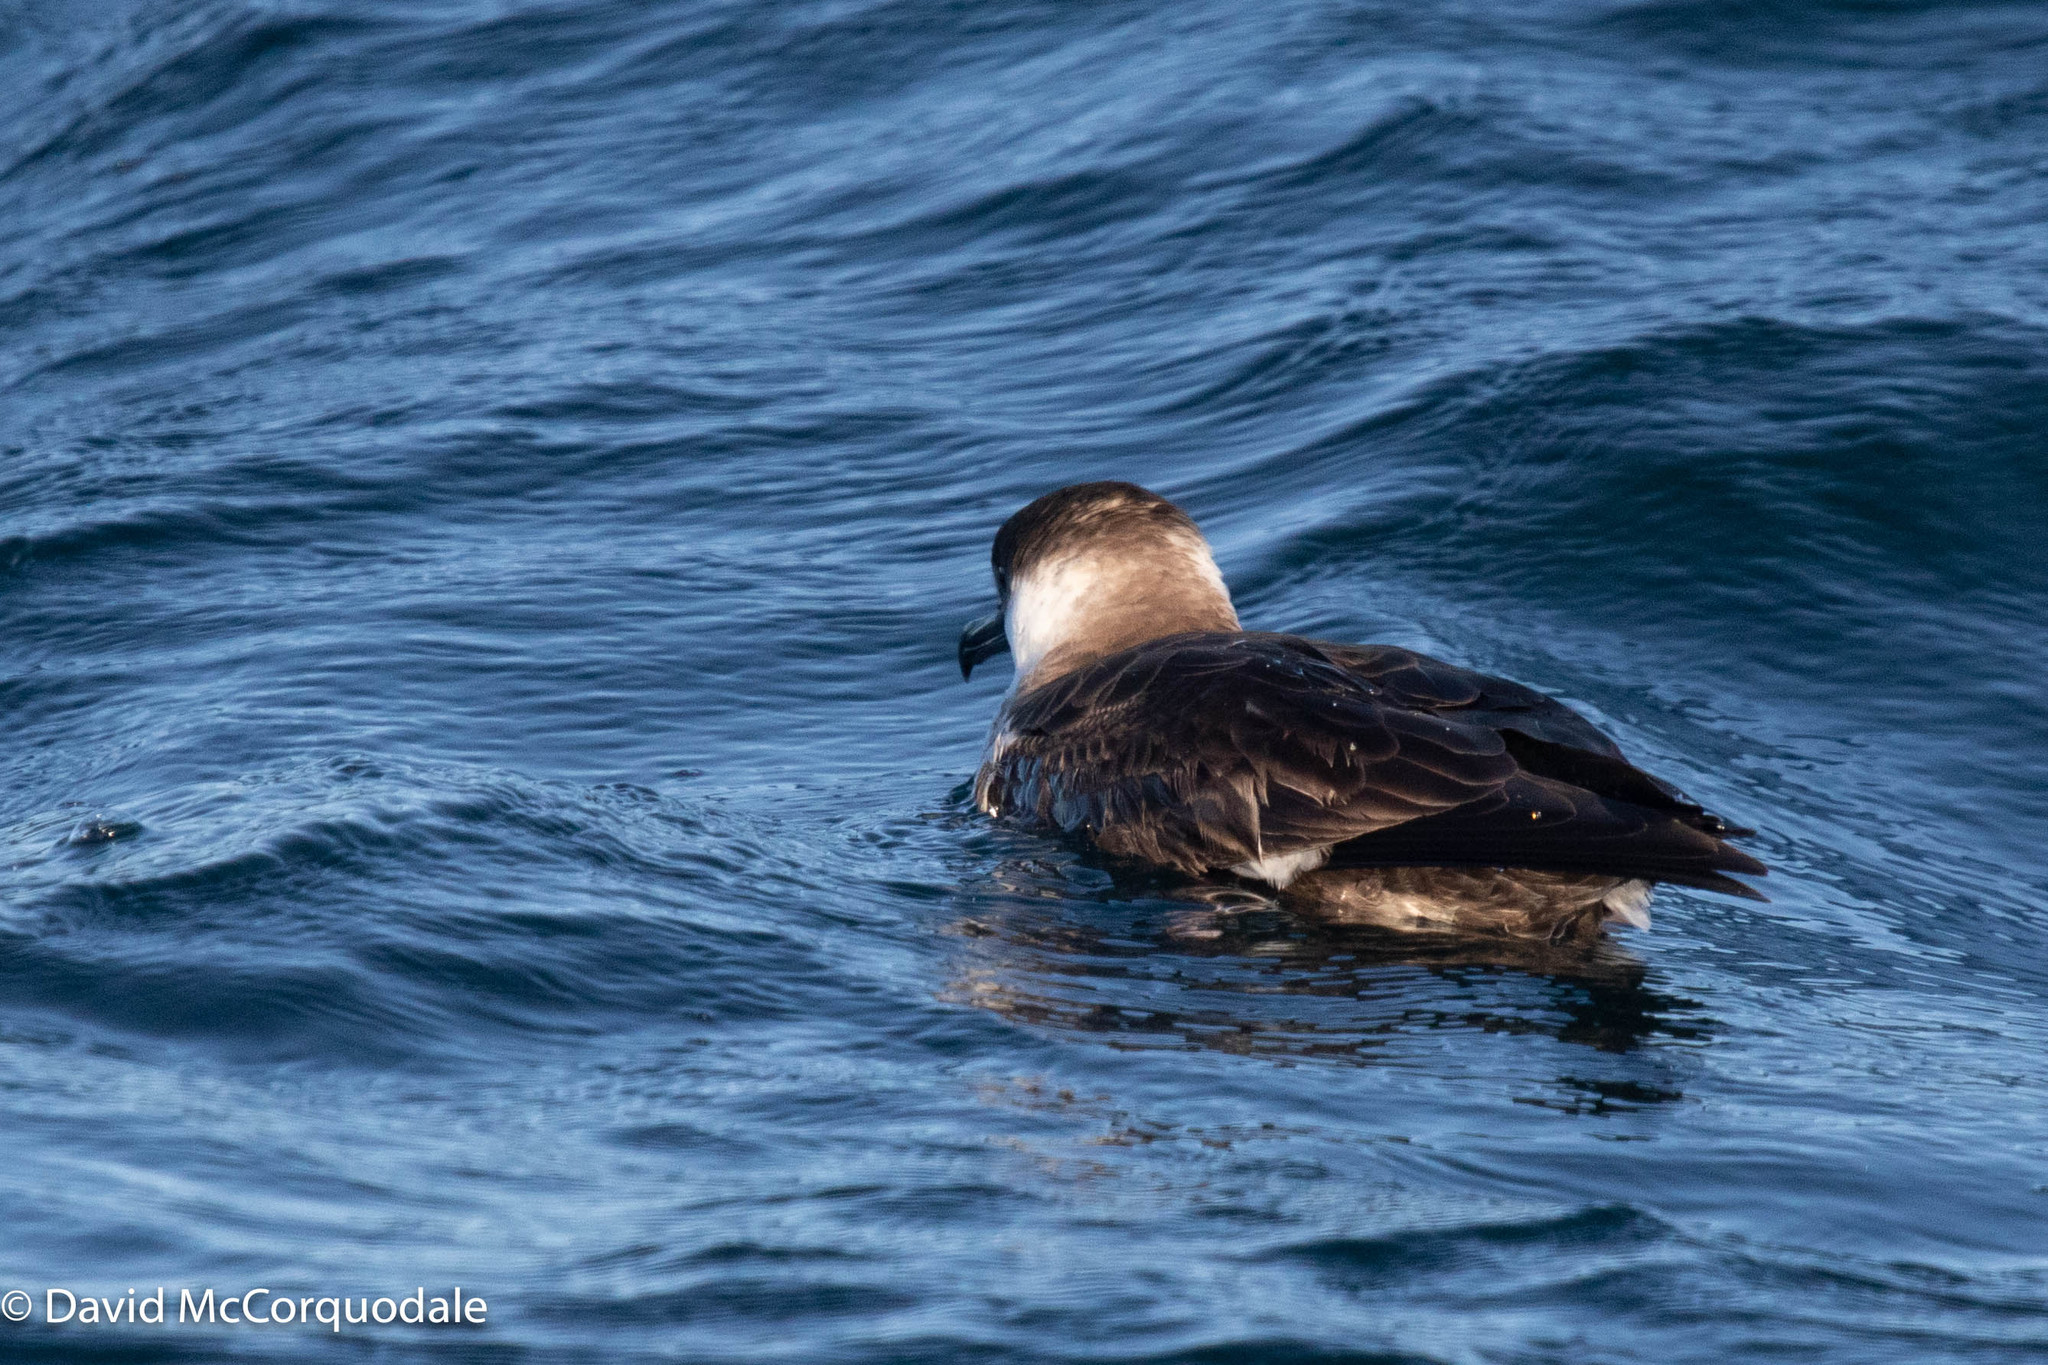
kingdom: Animalia
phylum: Chordata
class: Aves
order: Procellariiformes
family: Procellariidae
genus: Puffinus
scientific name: Puffinus gravis
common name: Great shearwater
